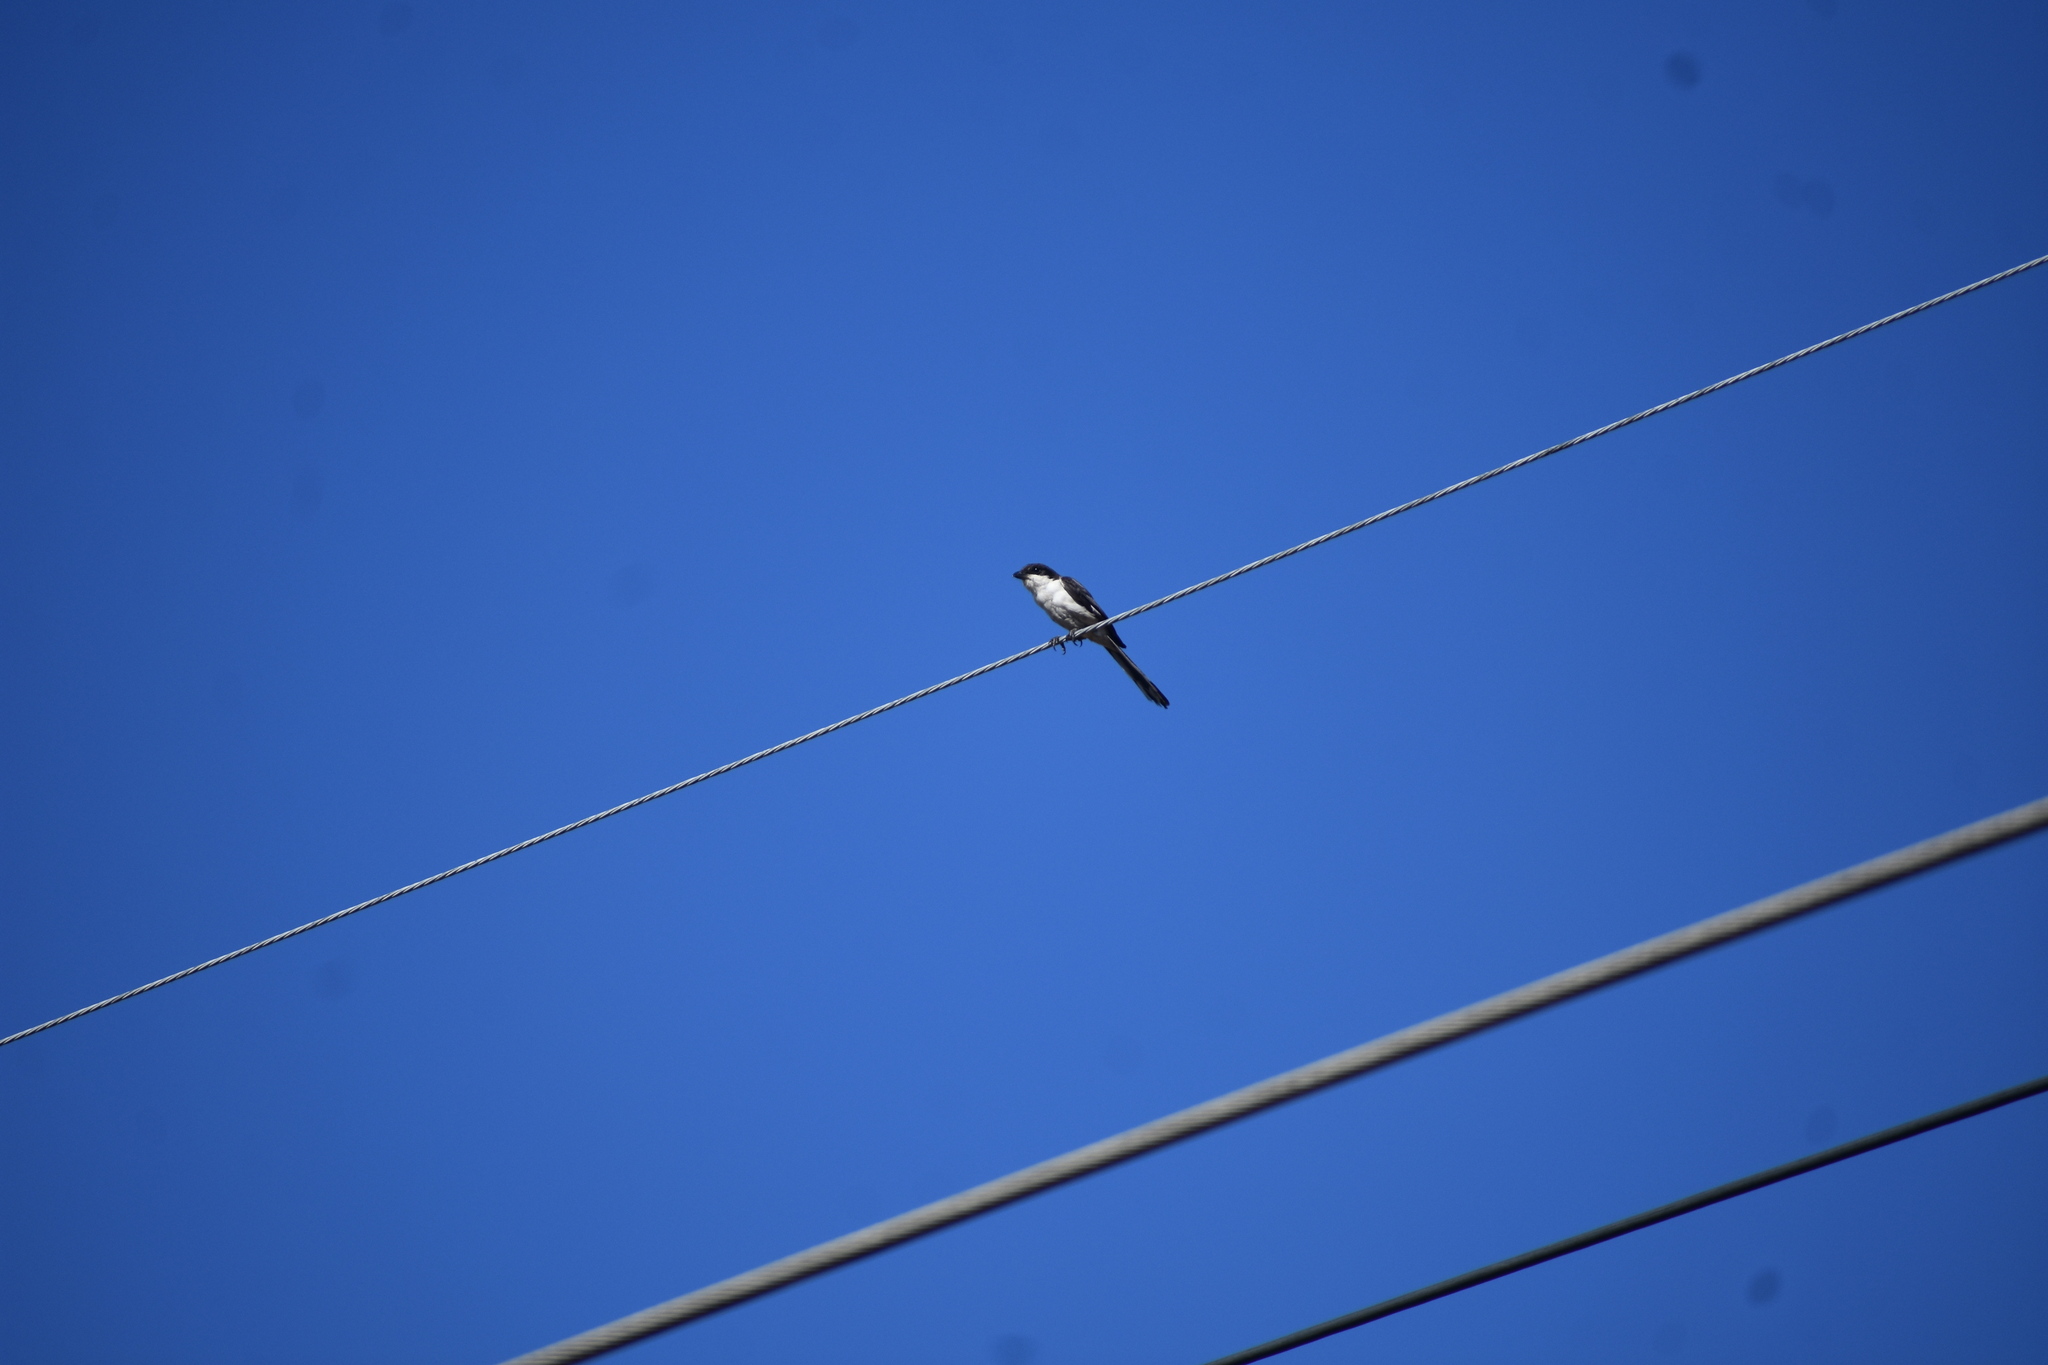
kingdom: Animalia
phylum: Chordata
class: Aves
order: Passeriformes
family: Laniidae
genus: Lanius
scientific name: Lanius collaris
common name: Southern fiscal
